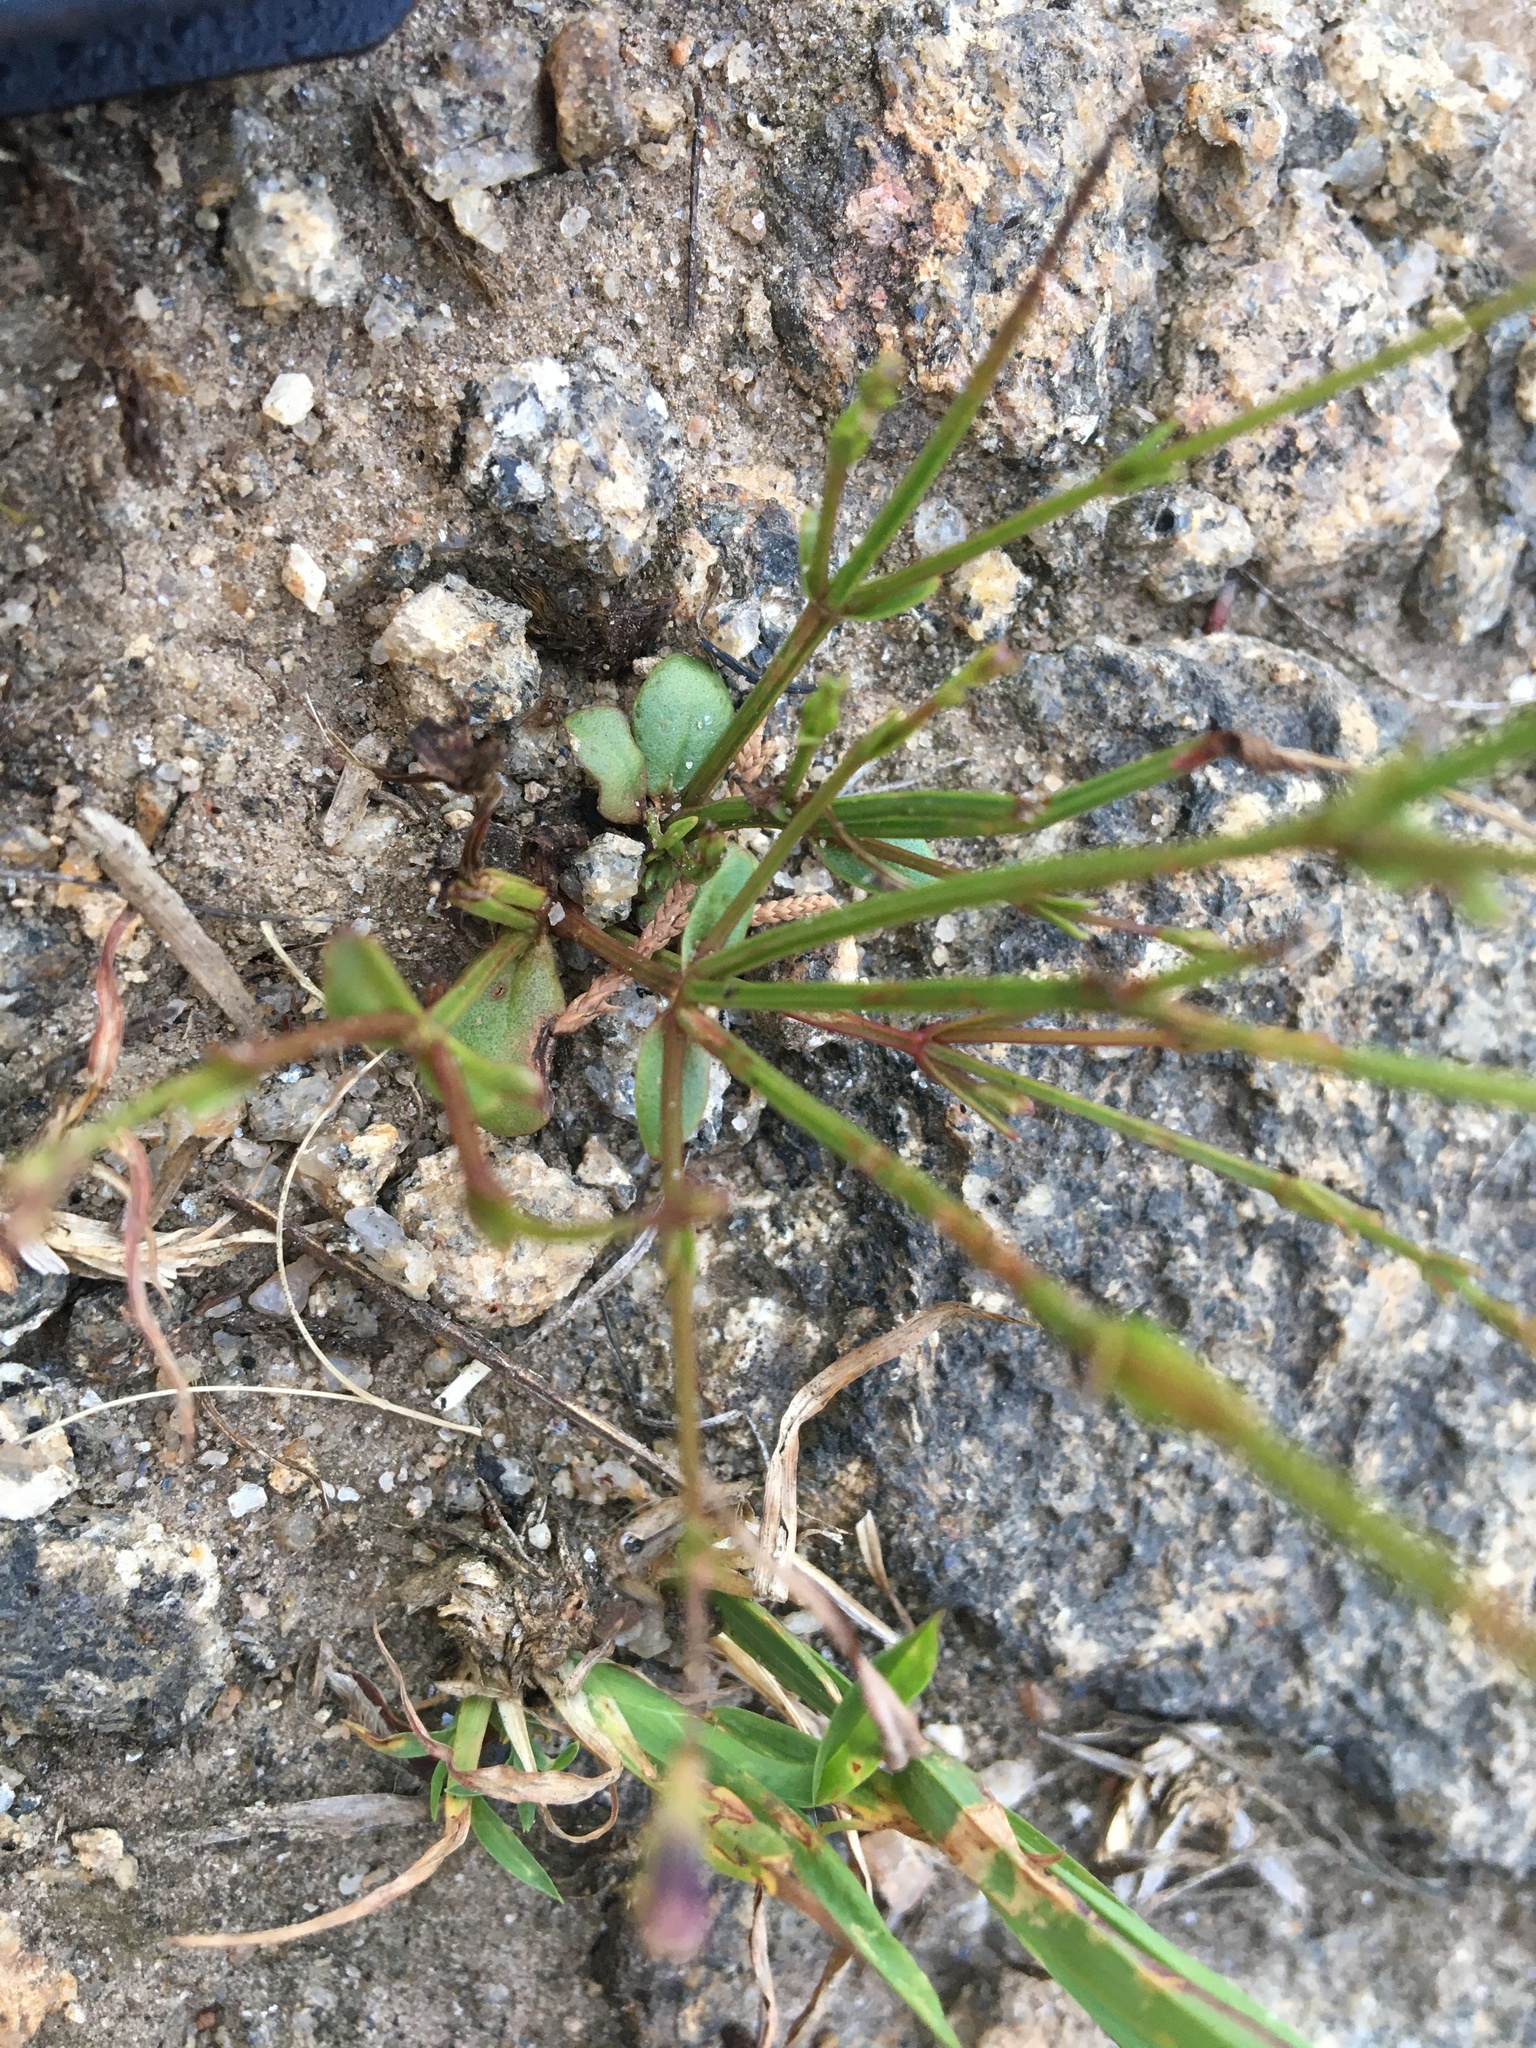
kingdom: Plantae
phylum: Tracheophyta
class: Magnoliopsida
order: Lamiales
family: Linderniaceae
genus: Lindernia
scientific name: Lindernia monticola
